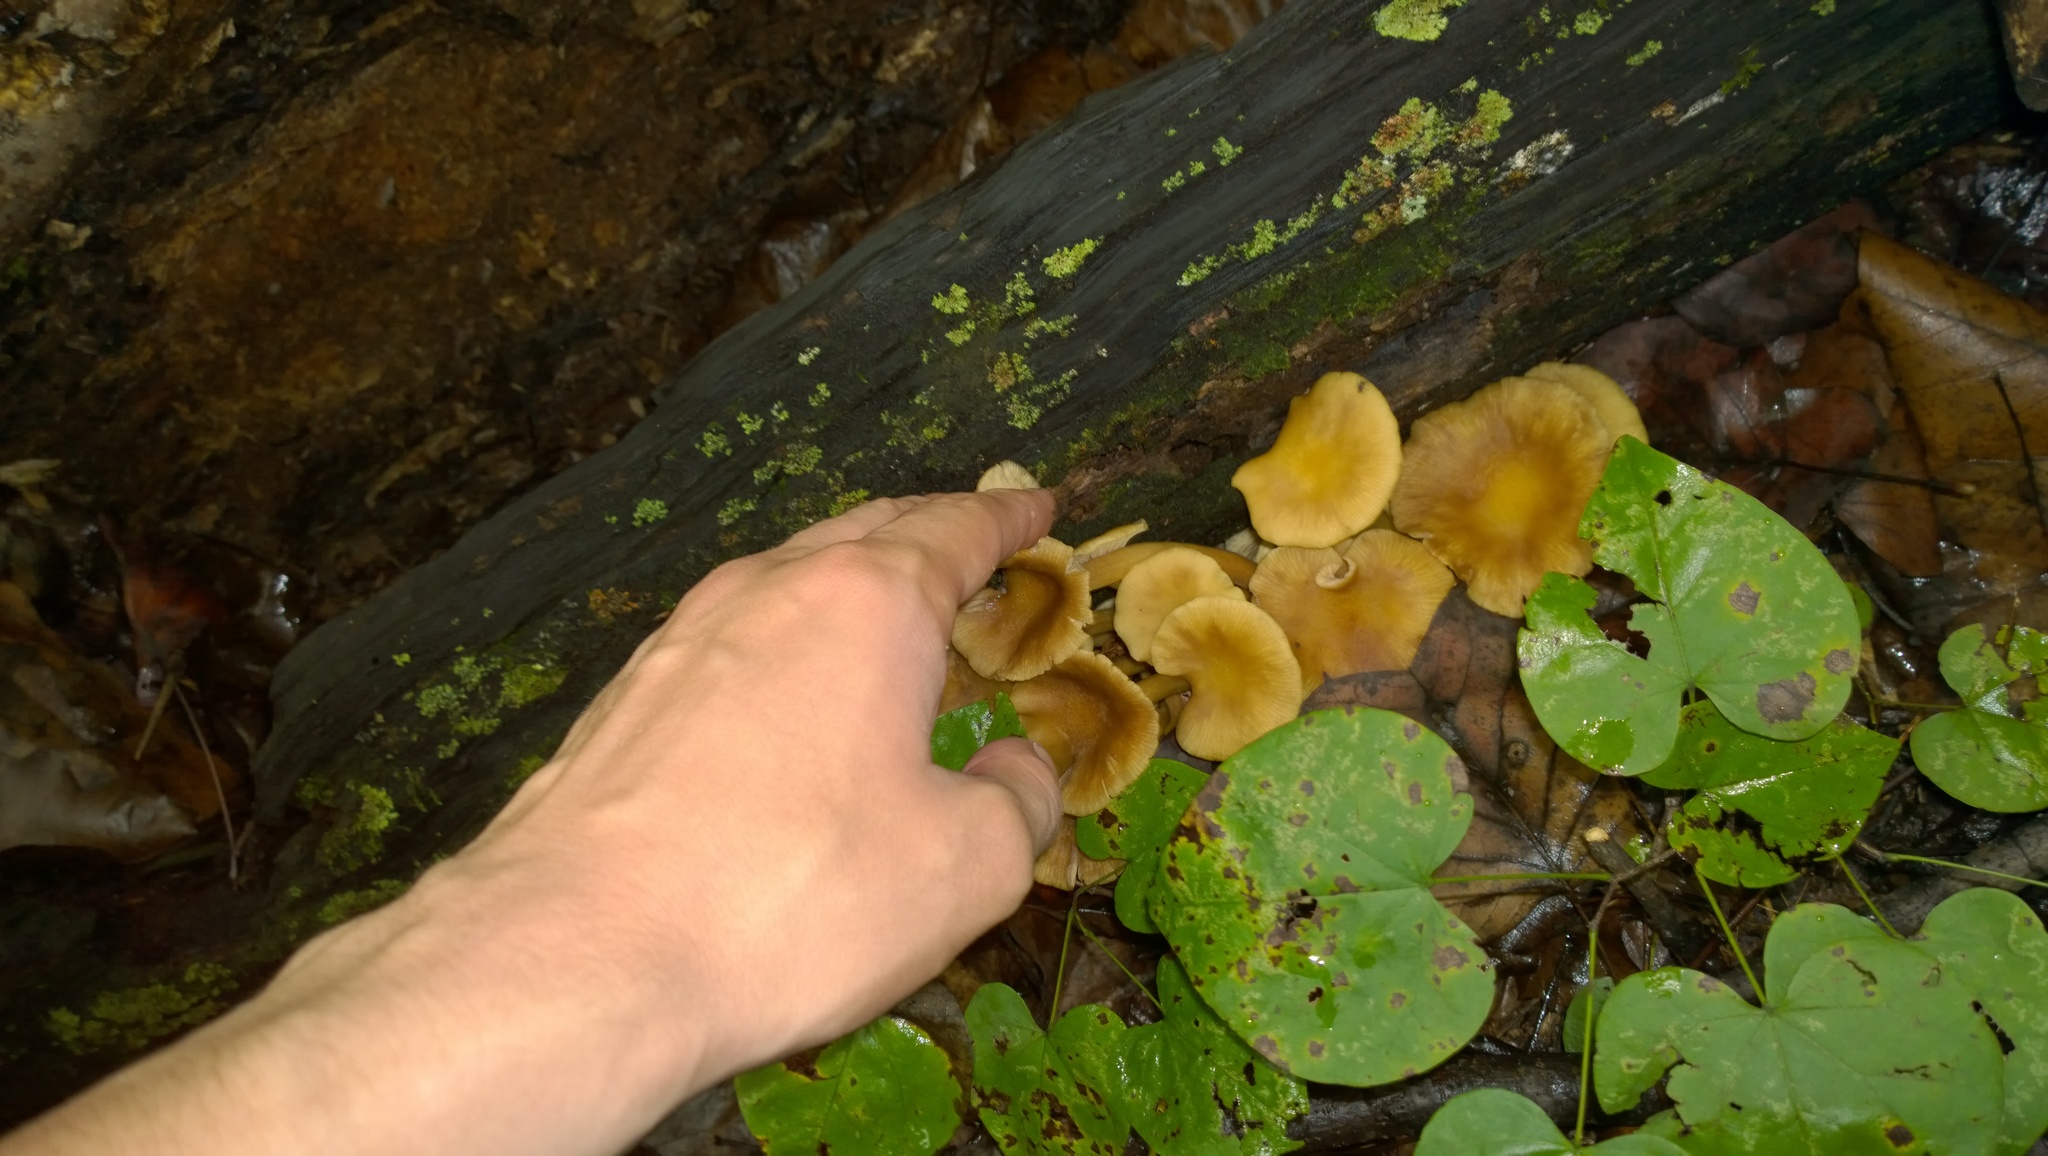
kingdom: Fungi
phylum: Basidiomycota
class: Agaricomycetes
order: Agaricales
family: Physalacriaceae
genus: Desarmillaria
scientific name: Desarmillaria caespitosa
